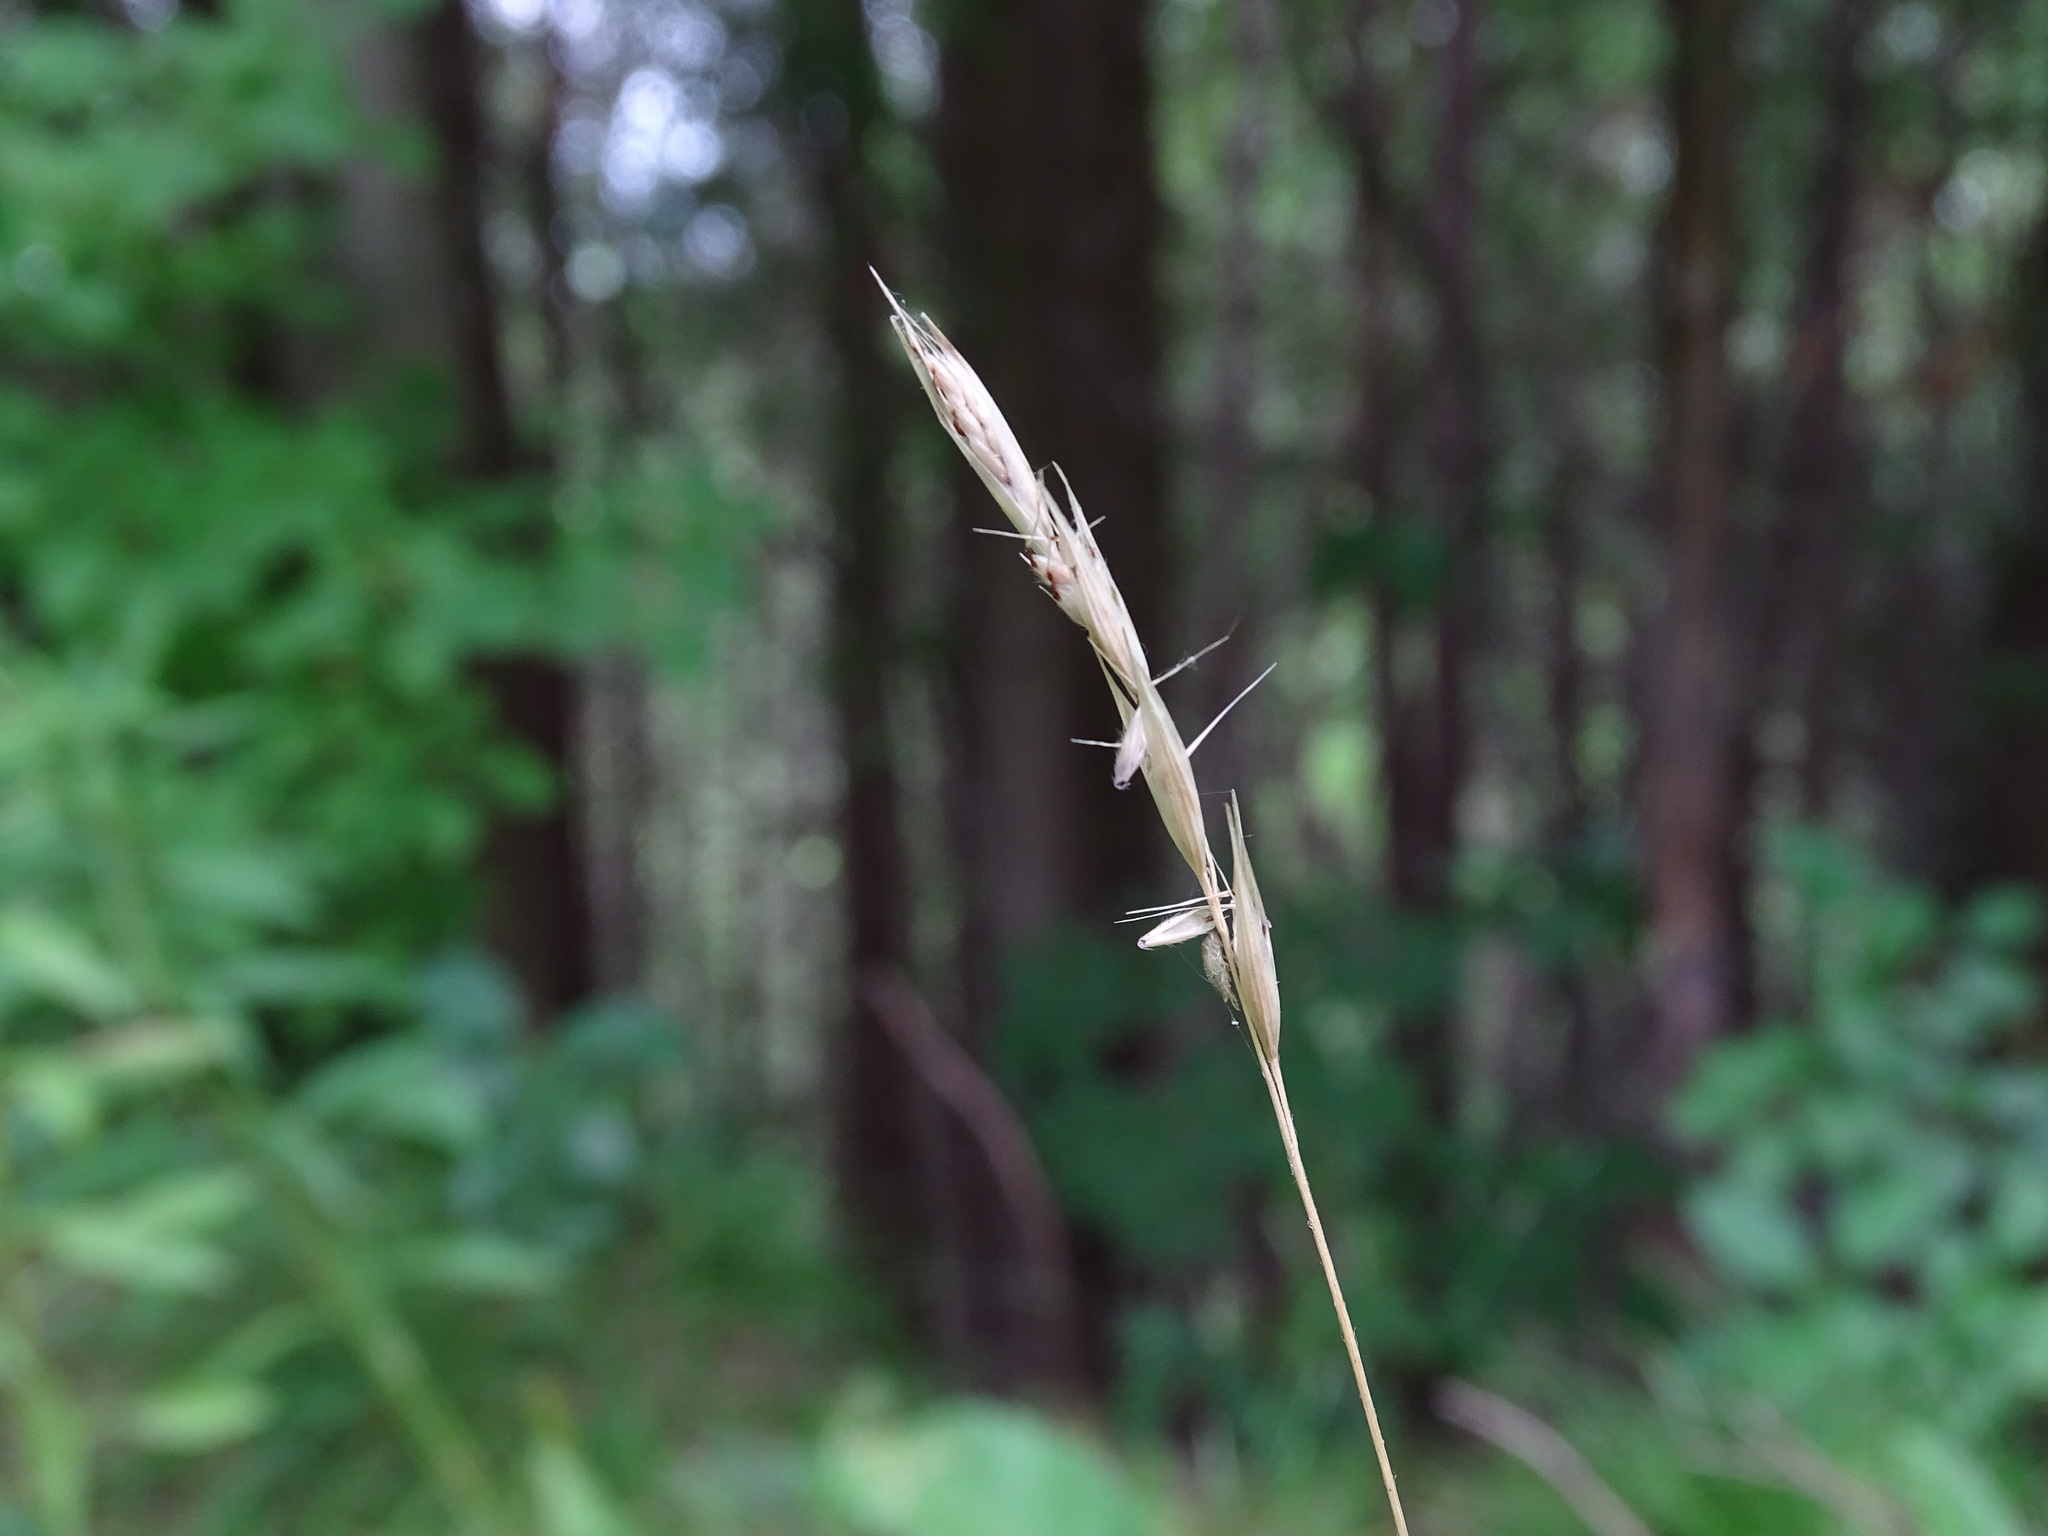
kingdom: Plantae
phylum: Tracheophyta
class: Liliopsida
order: Poales
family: Poaceae
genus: Danthonia
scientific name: Danthonia spicata
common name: Common wild oatgrass
